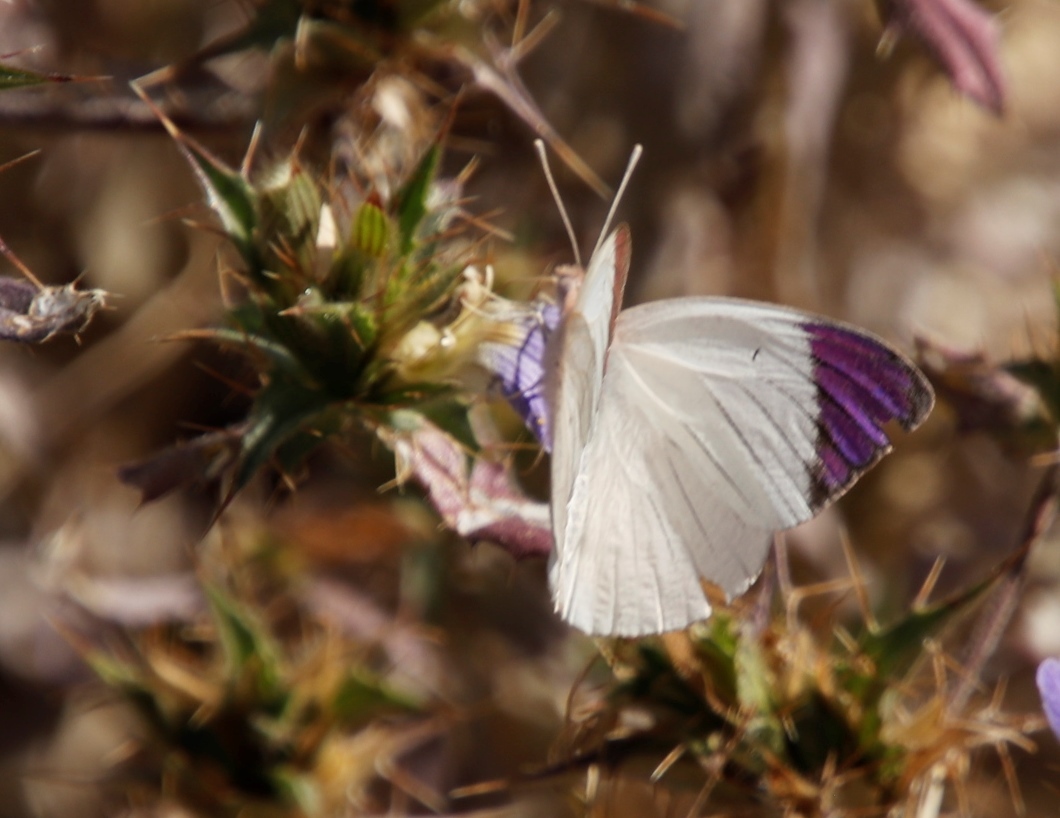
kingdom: Animalia
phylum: Arthropoda
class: Insecta
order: Lepidoptera
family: Pieridae
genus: Colotis
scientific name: Colotis regina
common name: Queen purple tip
